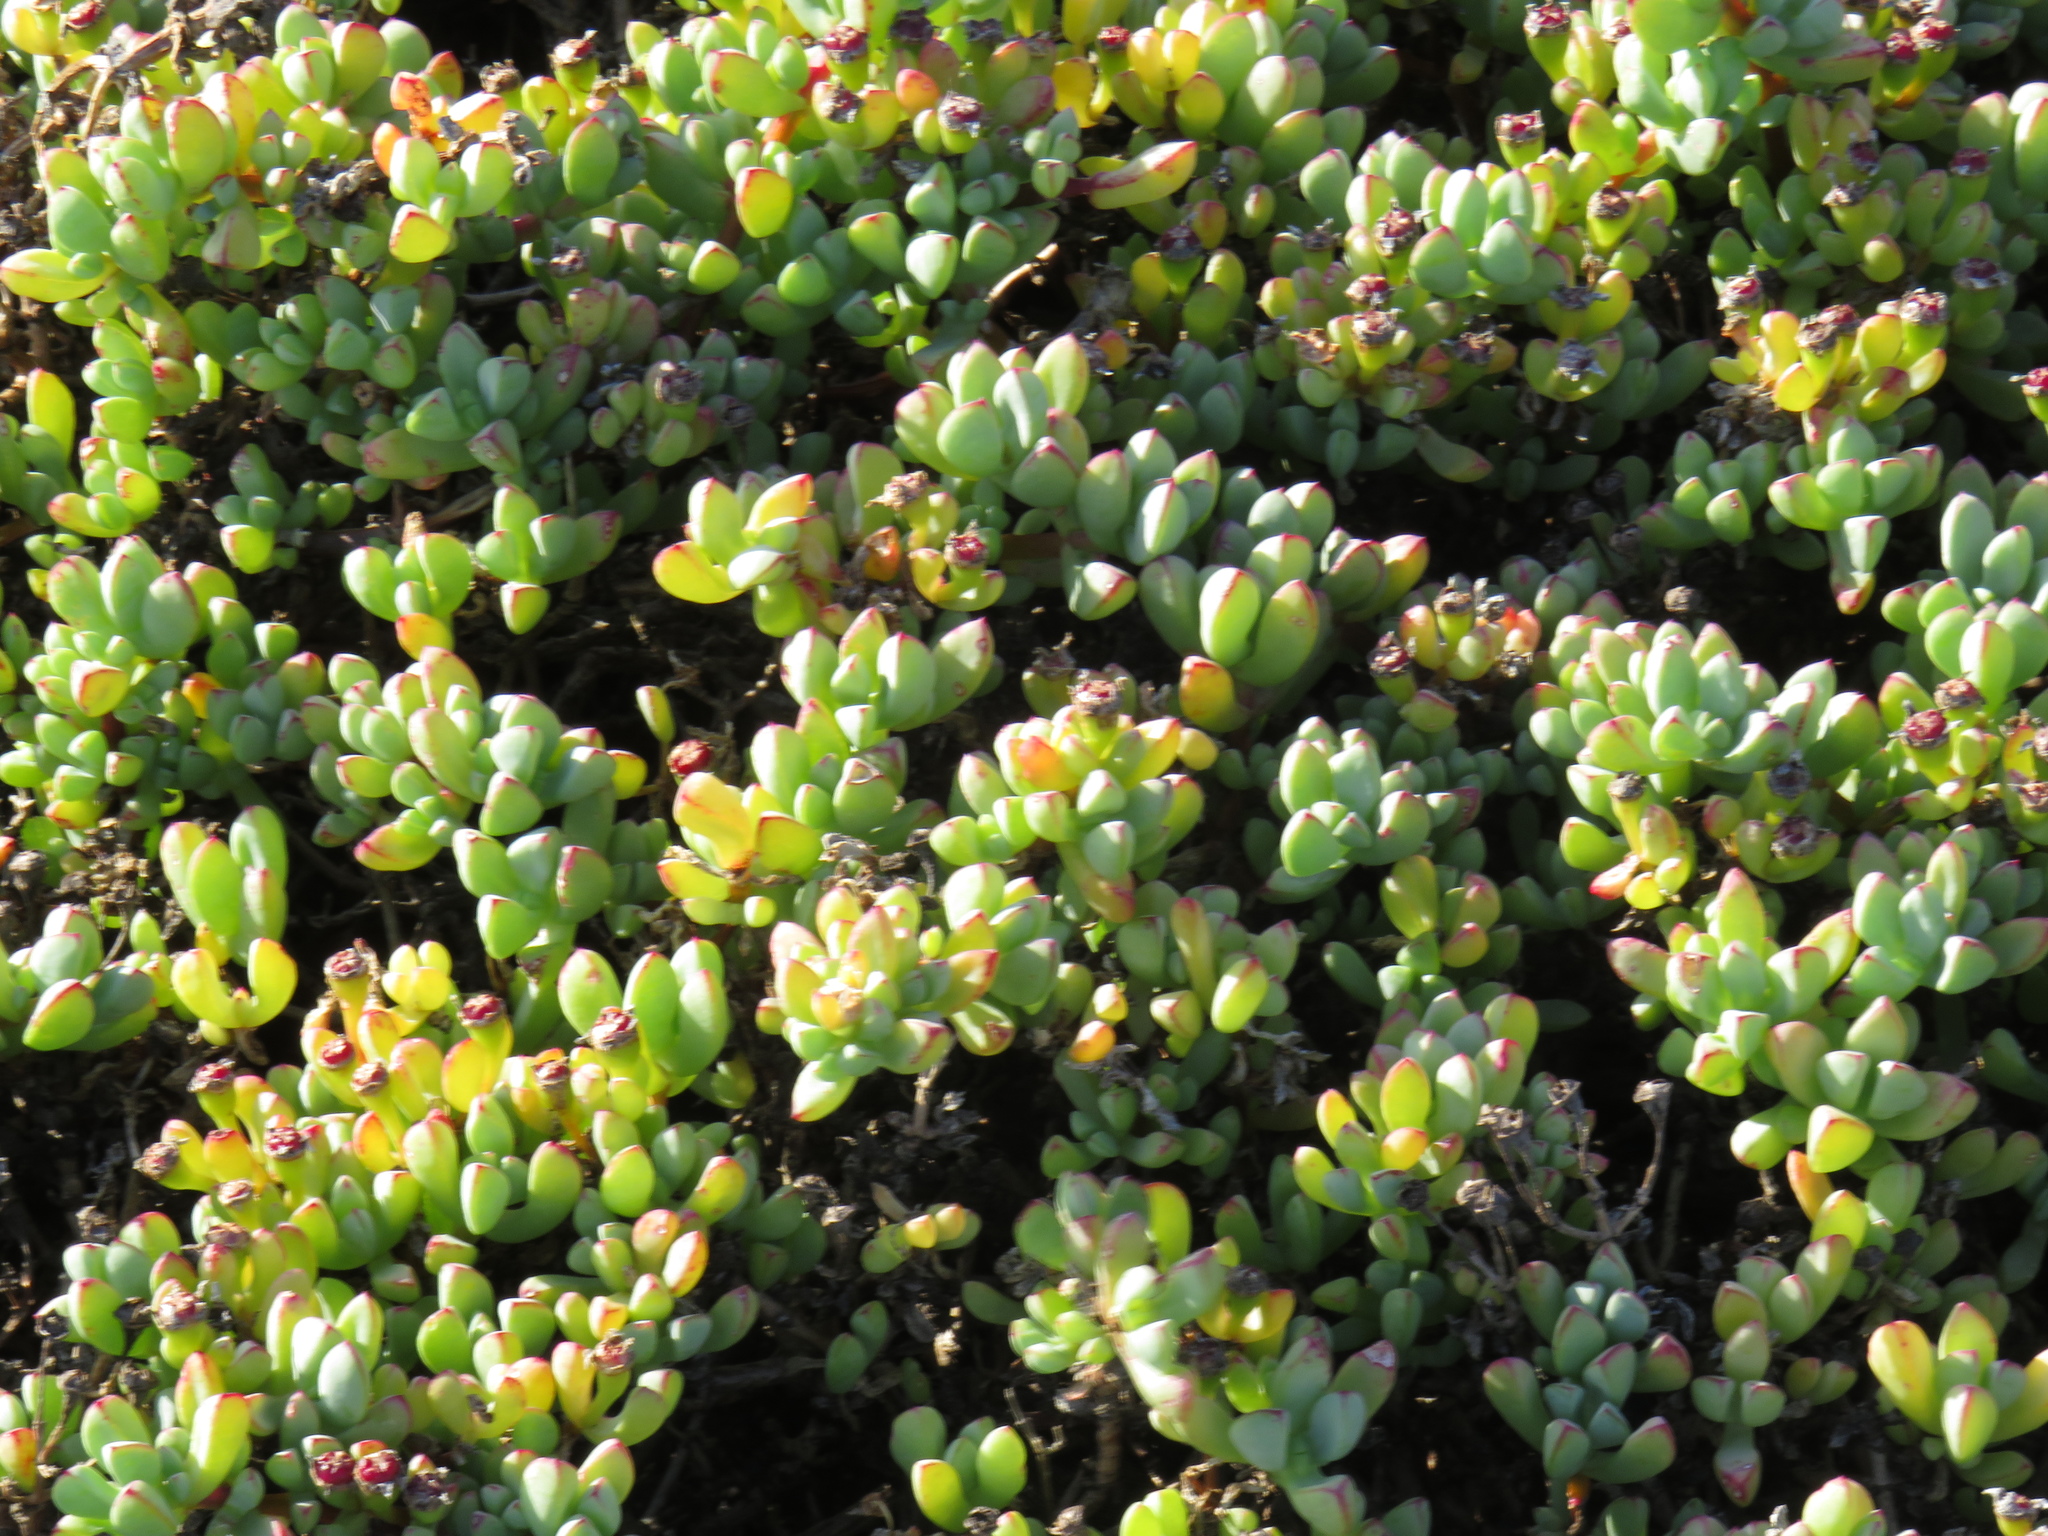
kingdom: Plantae
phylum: Tracheophyta
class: Magnoliopsida
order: Caryophyllales
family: Aizoaceae
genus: Oscularia
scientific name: Oscularia vredenburgensis
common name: Vredenberg ice plant
